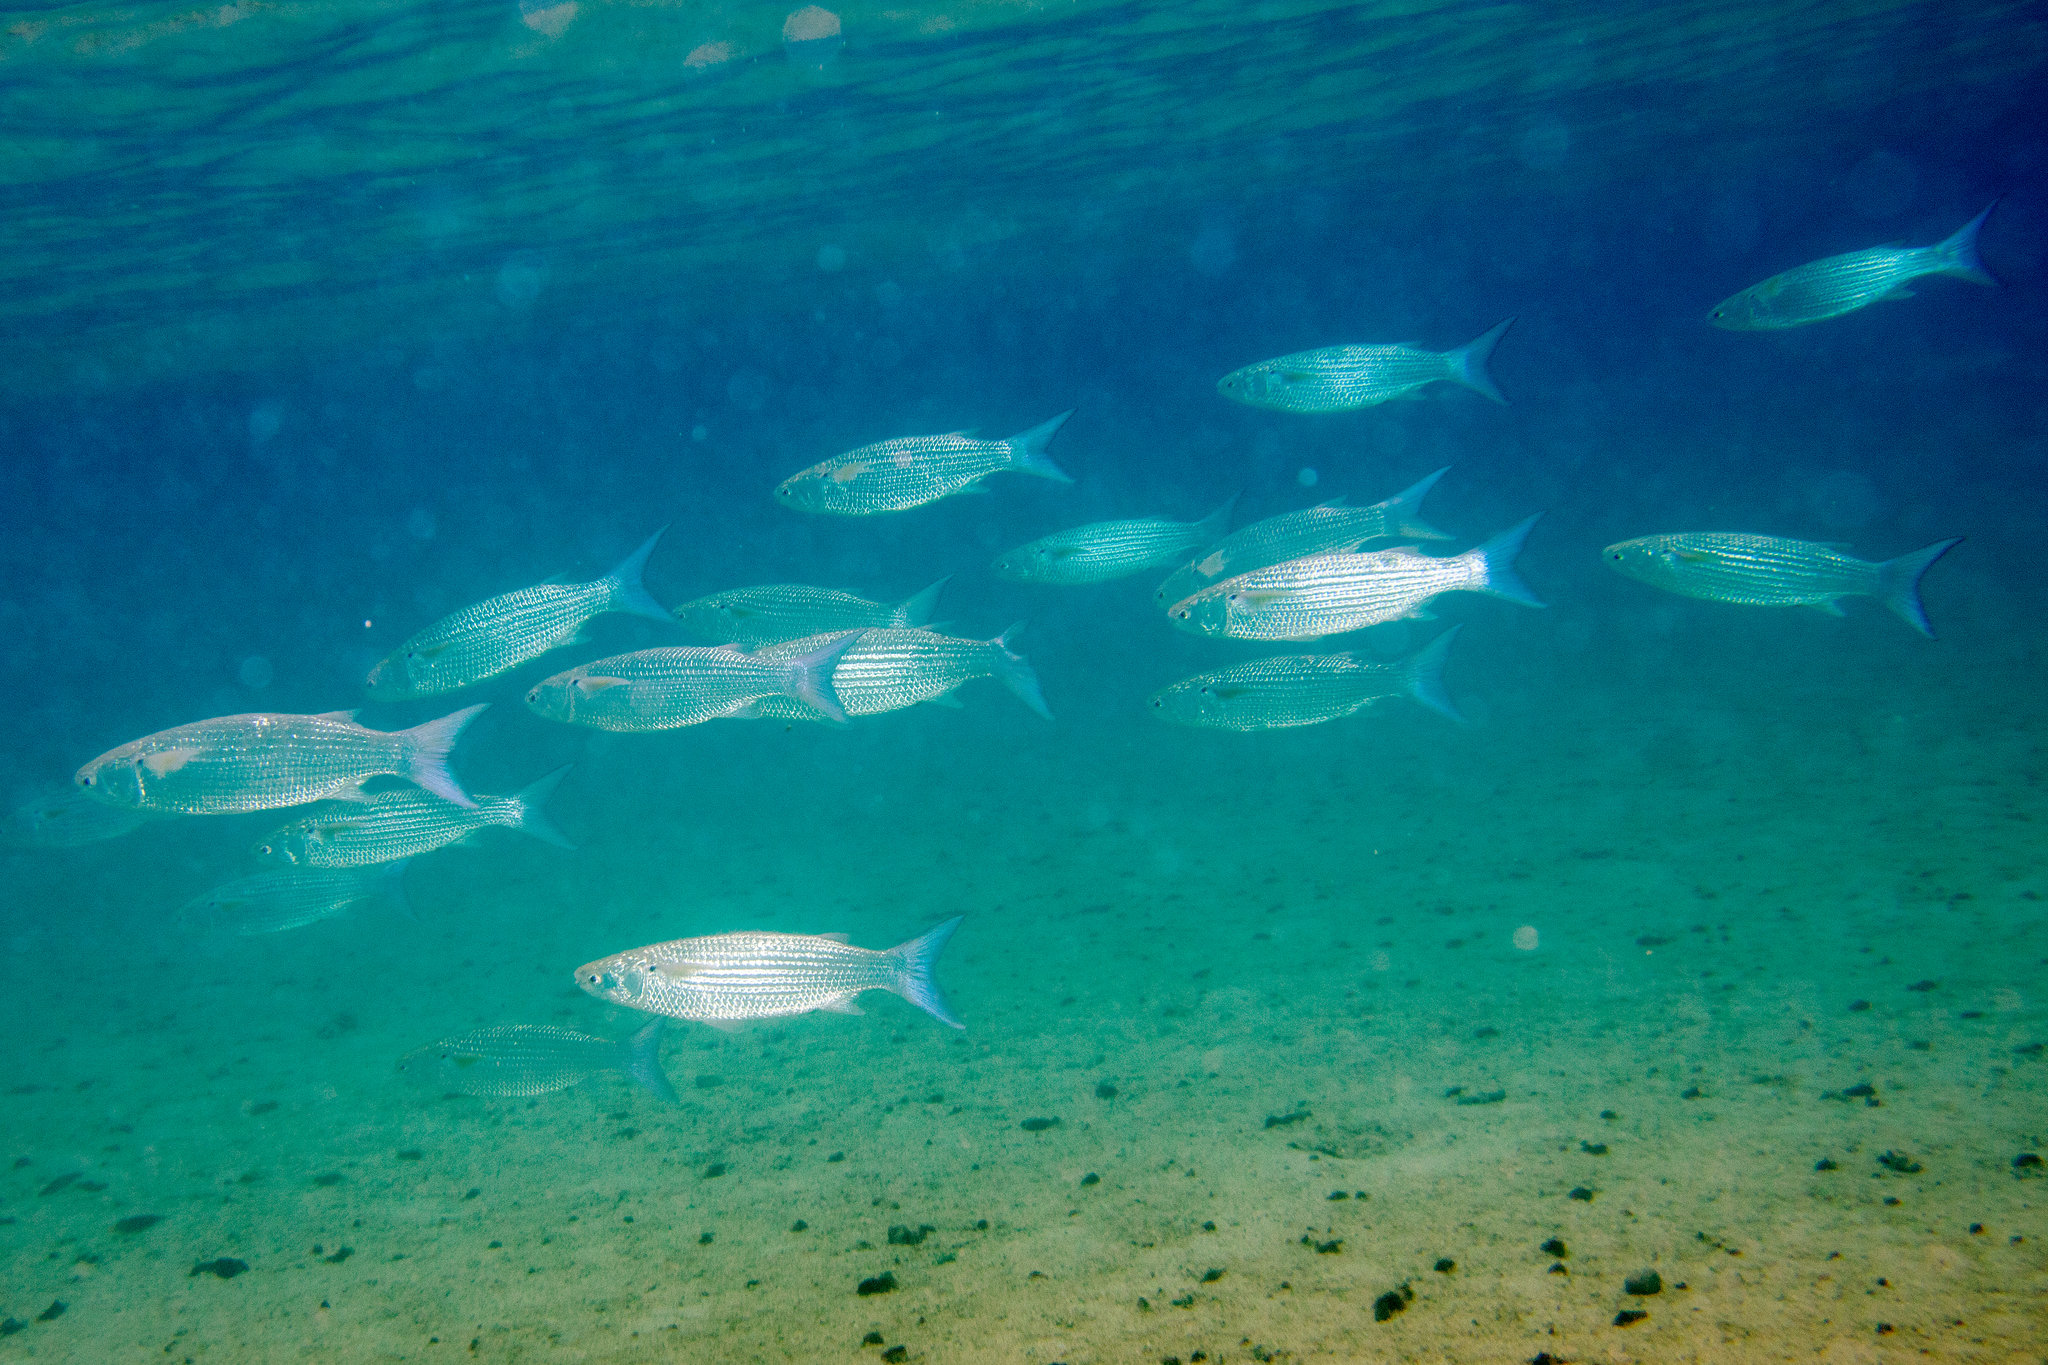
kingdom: Animalia
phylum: Chordata
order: Mugiliformes
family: Mugilidae
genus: Crenimugil
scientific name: Crenimugil crenilabis
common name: Fringelip mullet
